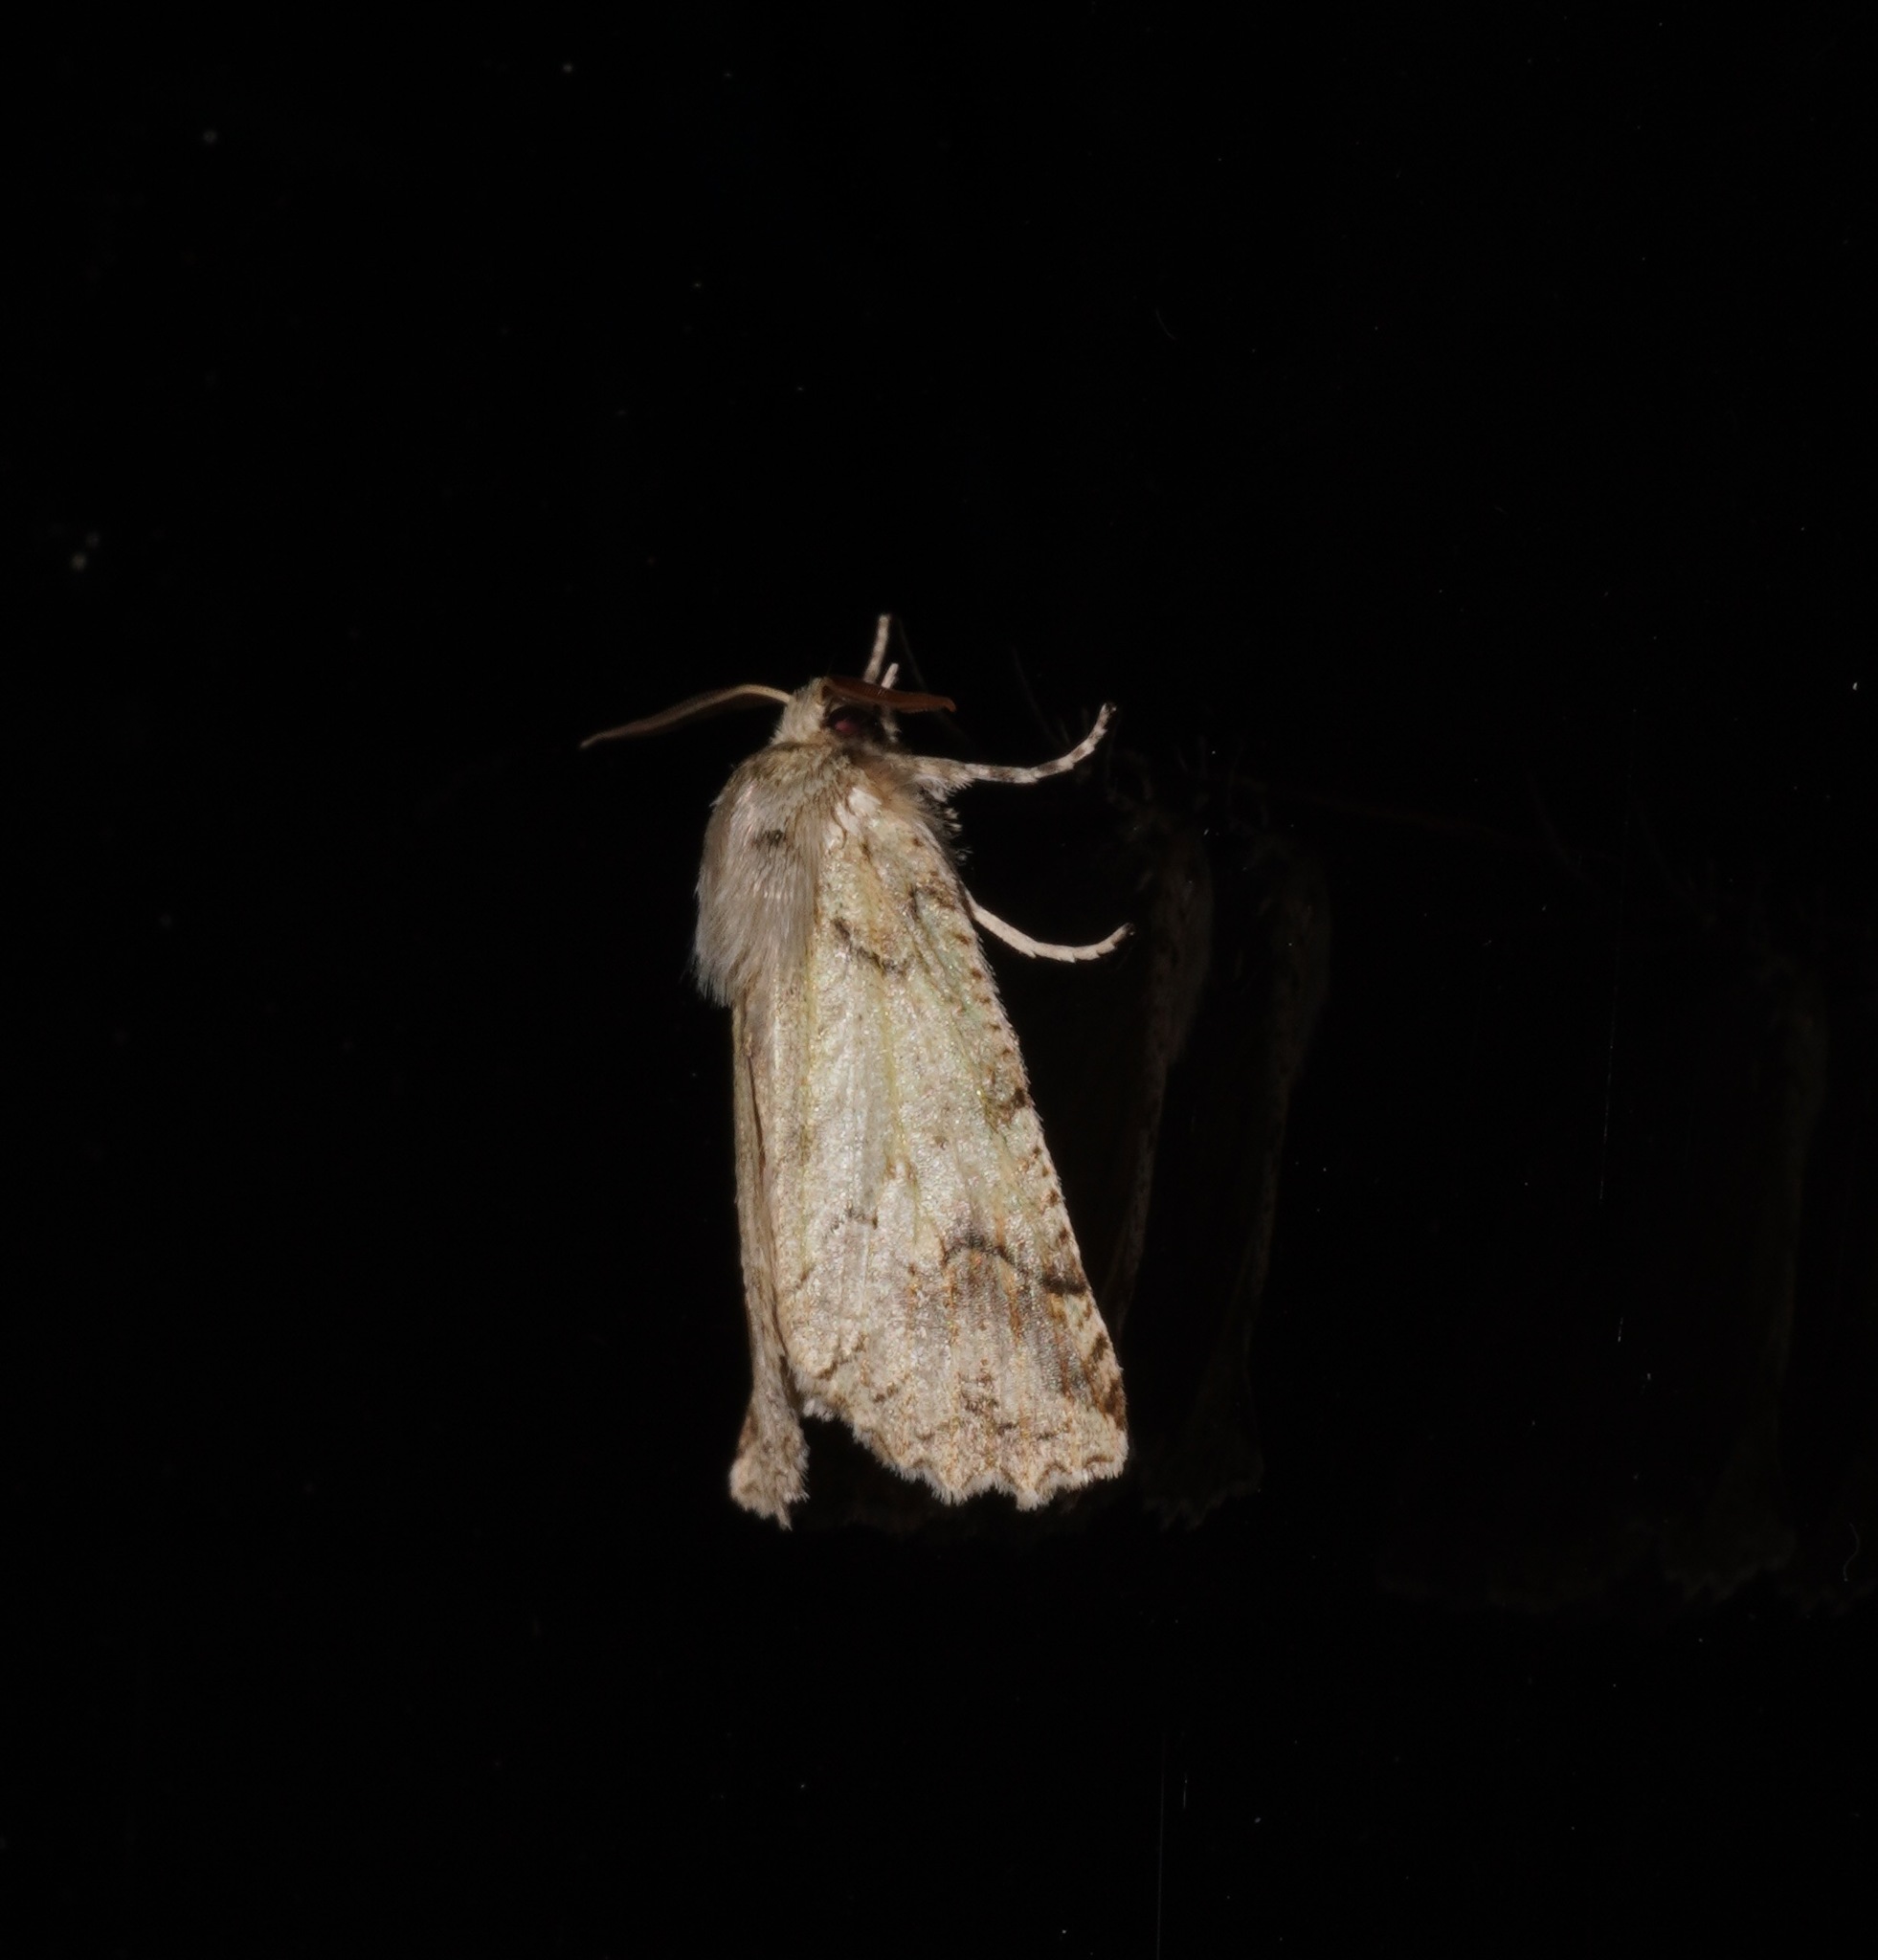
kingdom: Animalia
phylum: Arthropoda
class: Insecta
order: Lepidoptera
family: Geometridae
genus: Declana
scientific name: Declana floccosa
